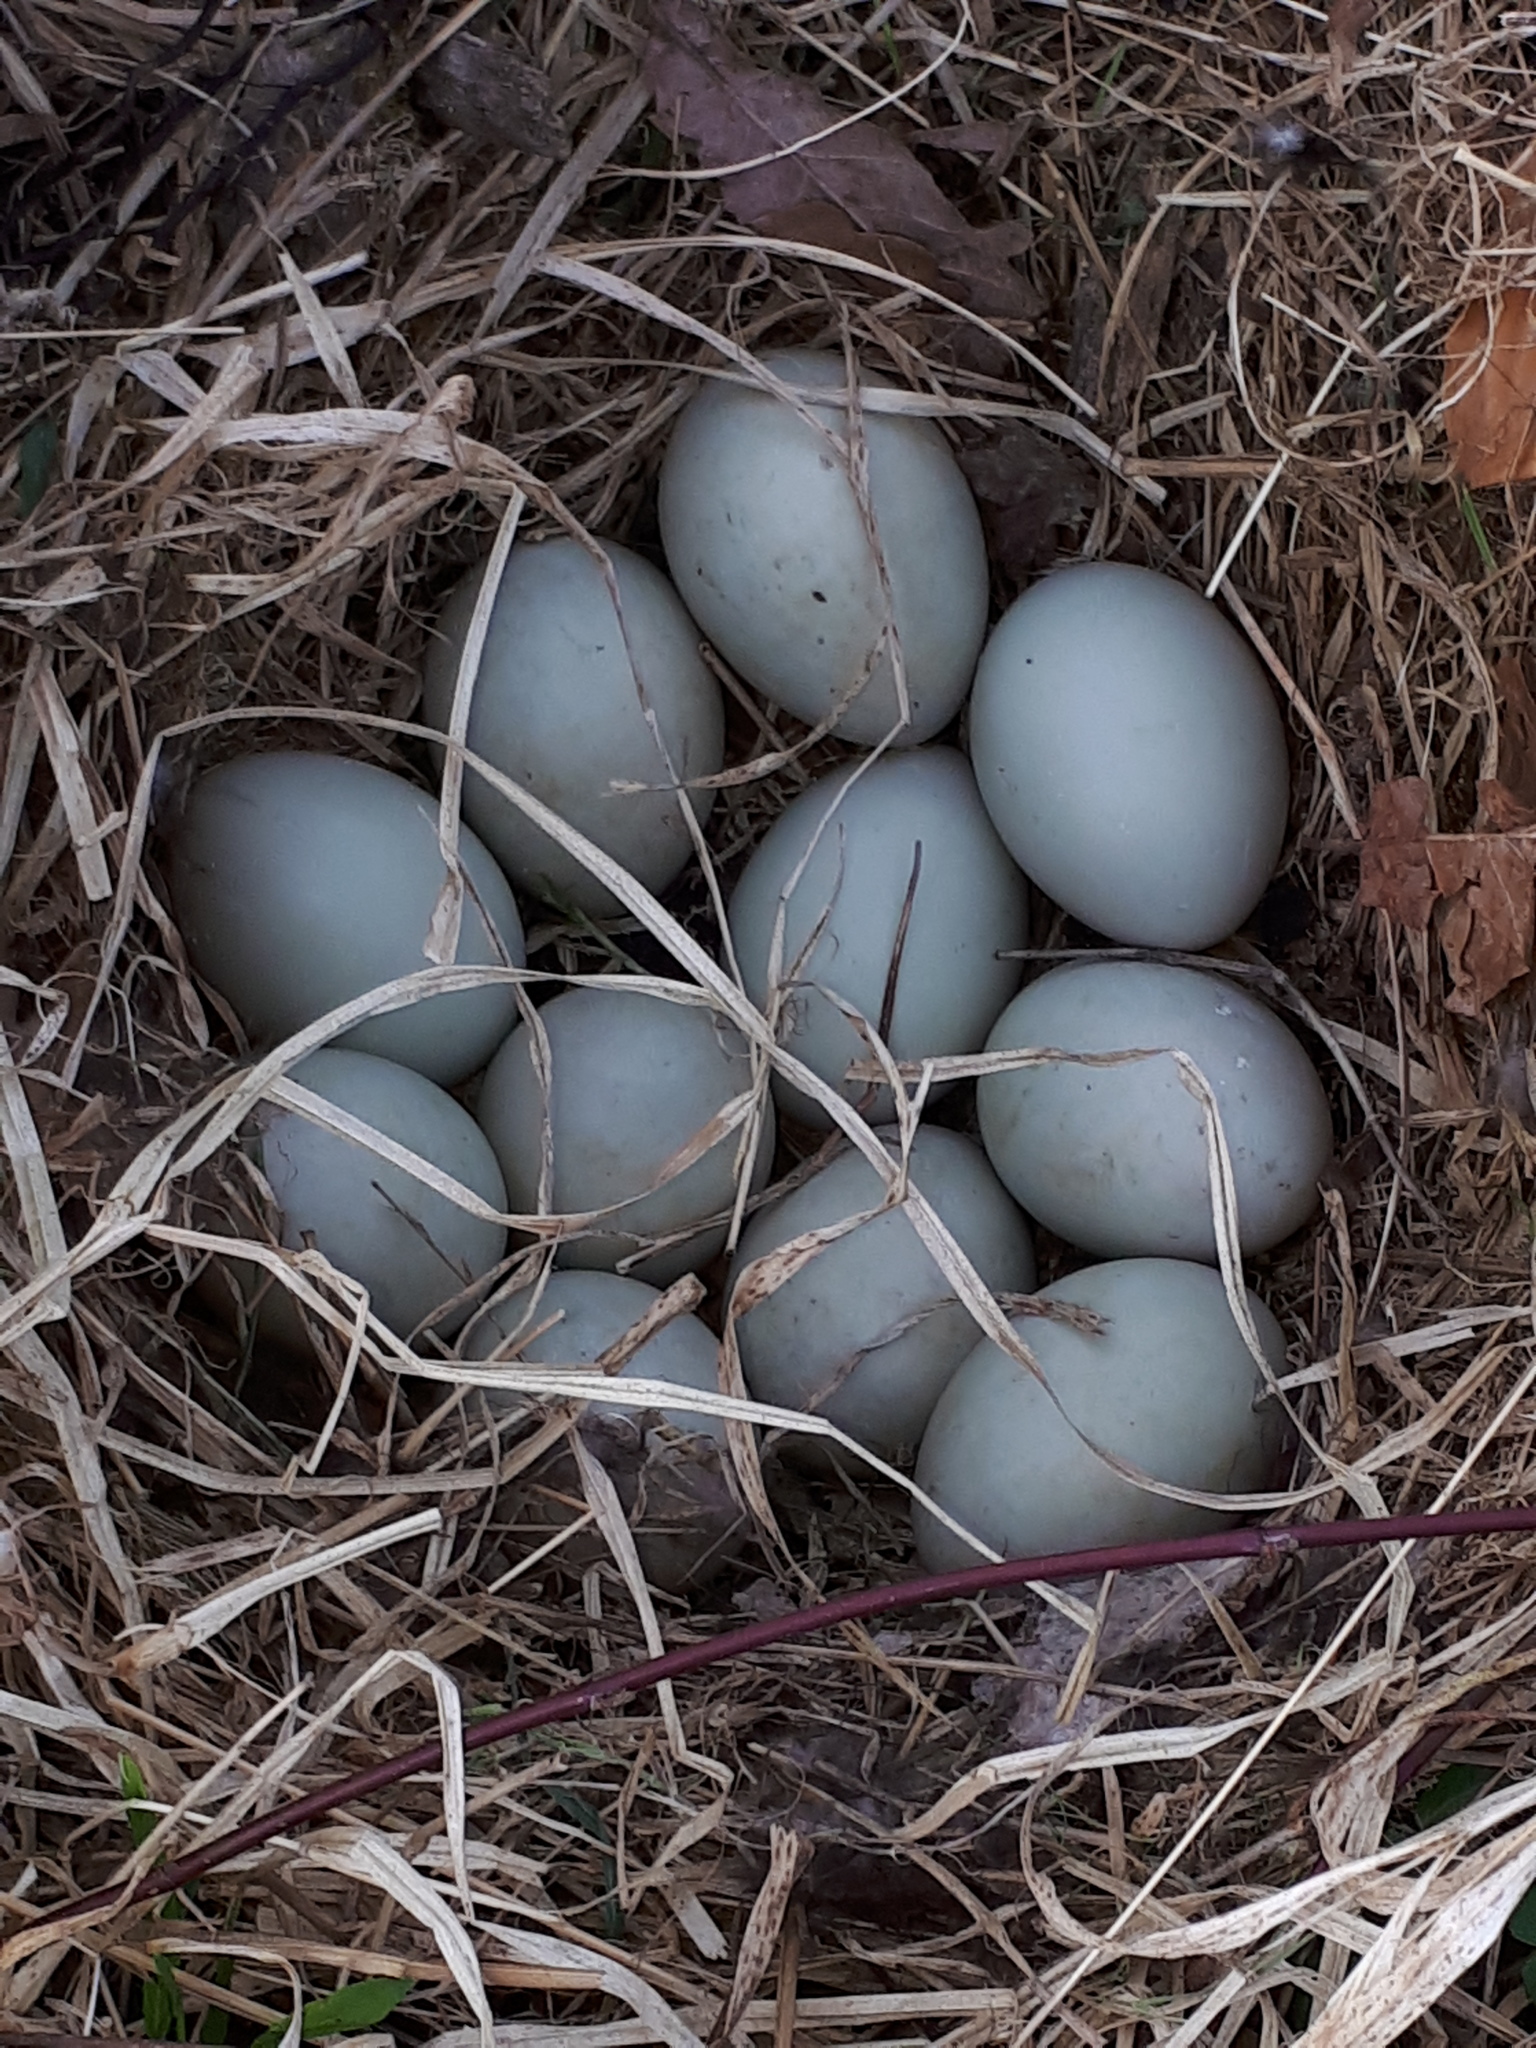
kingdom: Animalia
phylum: Chordata
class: Aves
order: Anseriformes
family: Anatidae
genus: Anas
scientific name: Anas platyrhynchos
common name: Mallard
